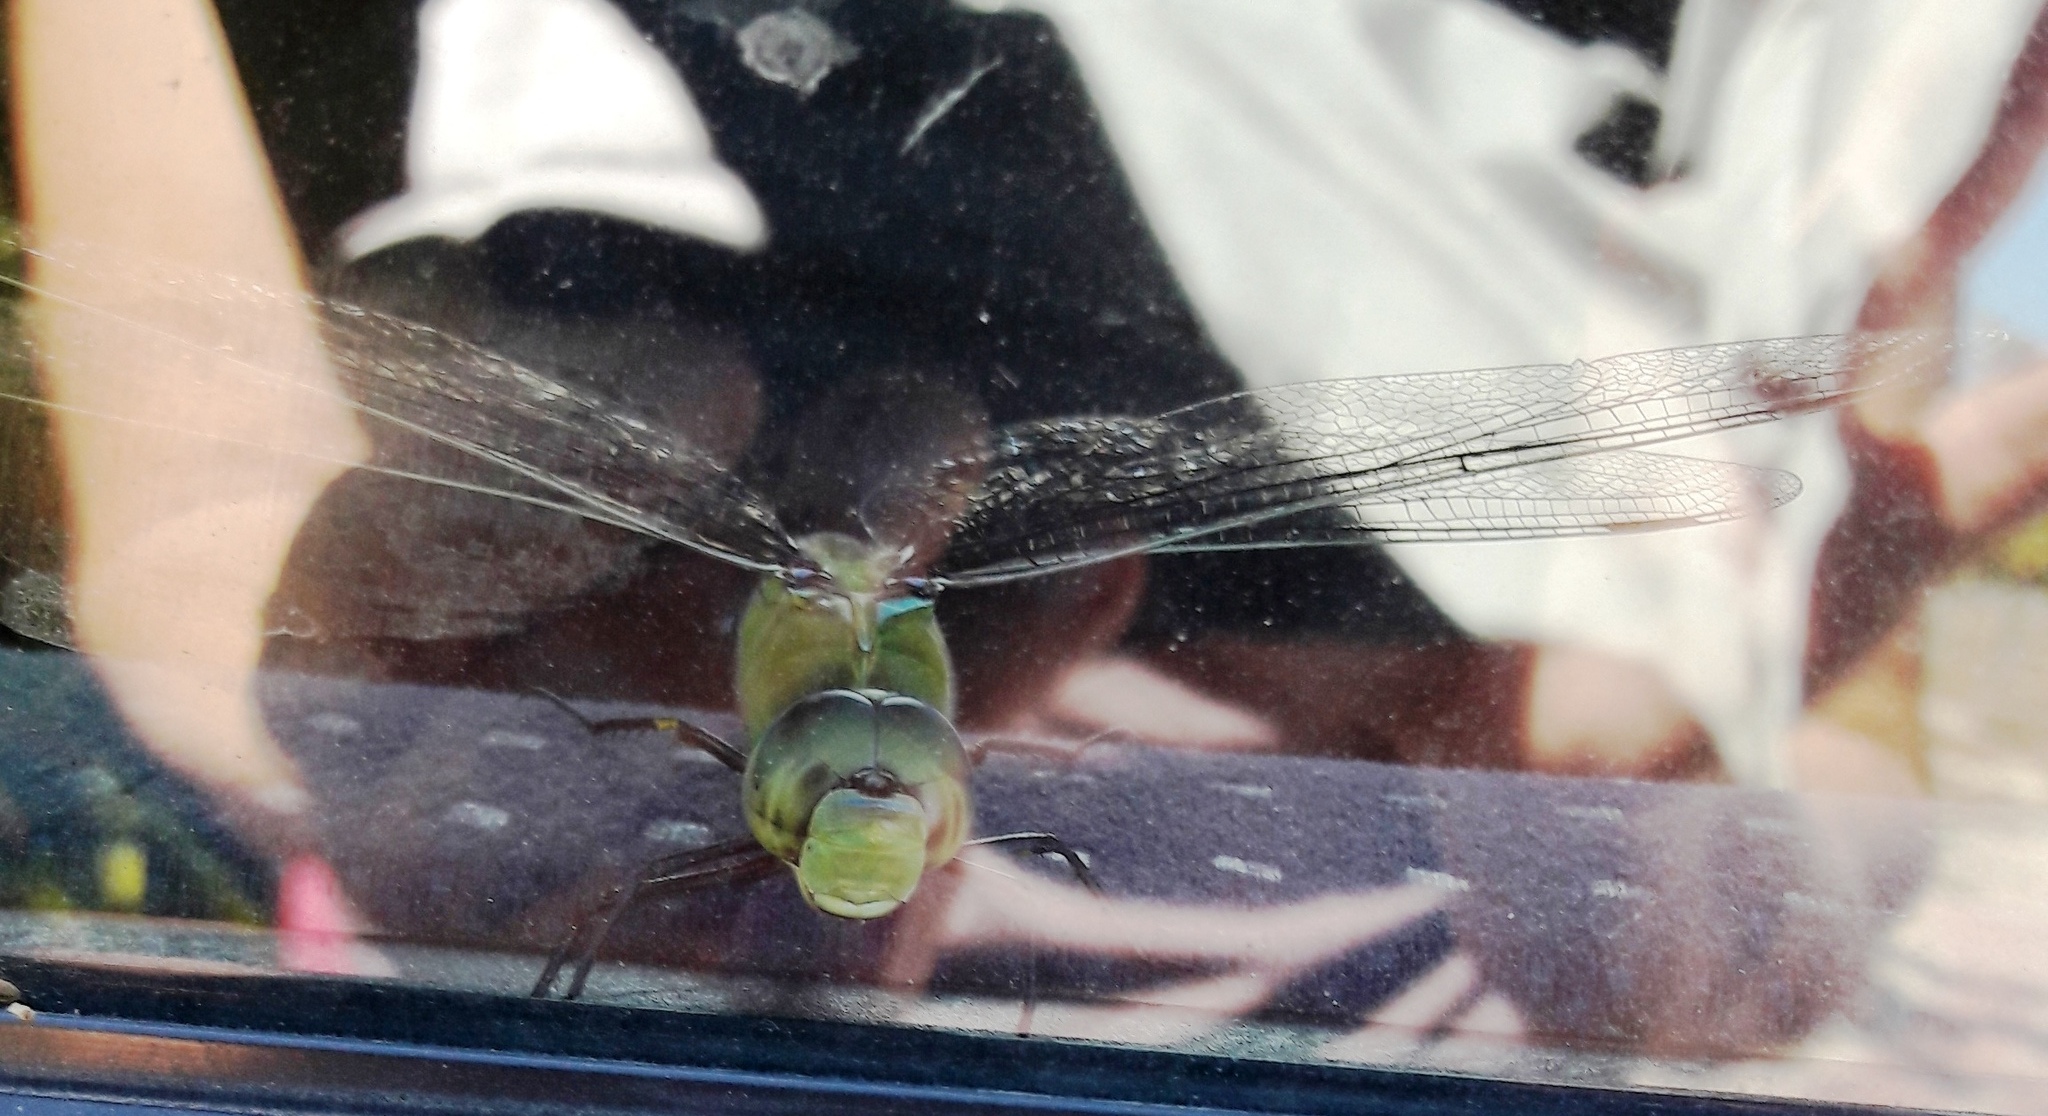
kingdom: Animalia
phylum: Arthropoda
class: Insecta
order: Odonata
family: Aeshnidae
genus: Anax
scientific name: Anax imperator
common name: Emperor dragonfly
